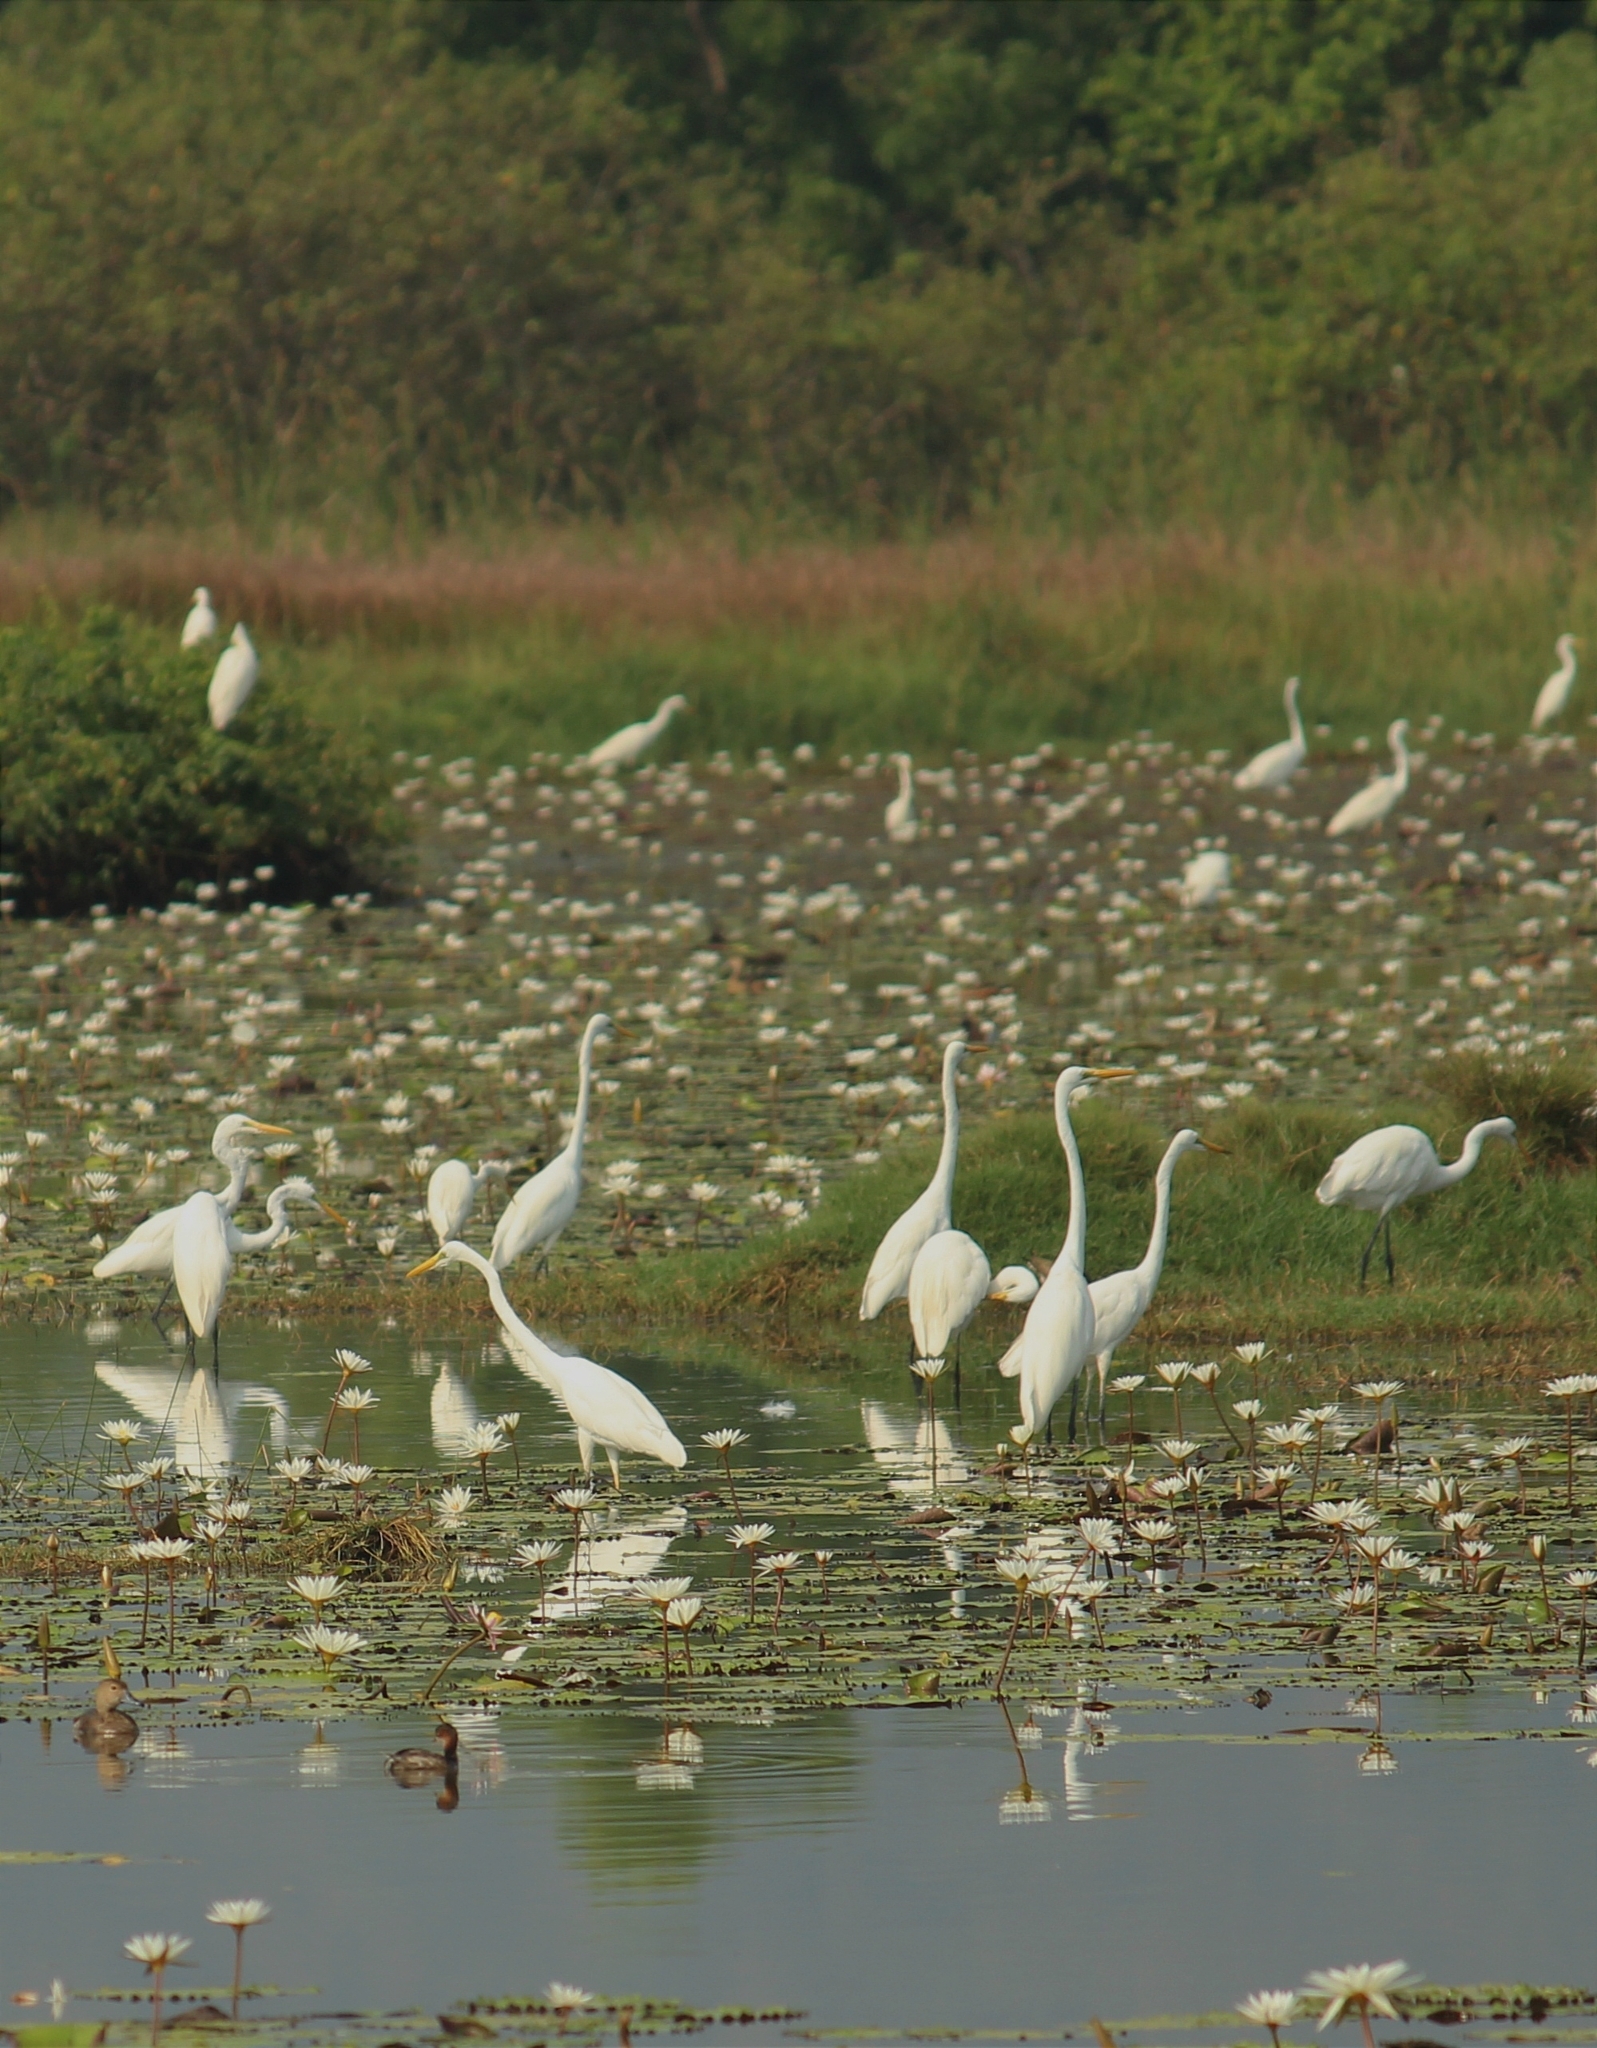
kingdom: Animalia
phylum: Chordata
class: Aves
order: Pelecaniformes
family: Ardeidae
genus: Ardea
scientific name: Ardea alba
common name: Great egret
